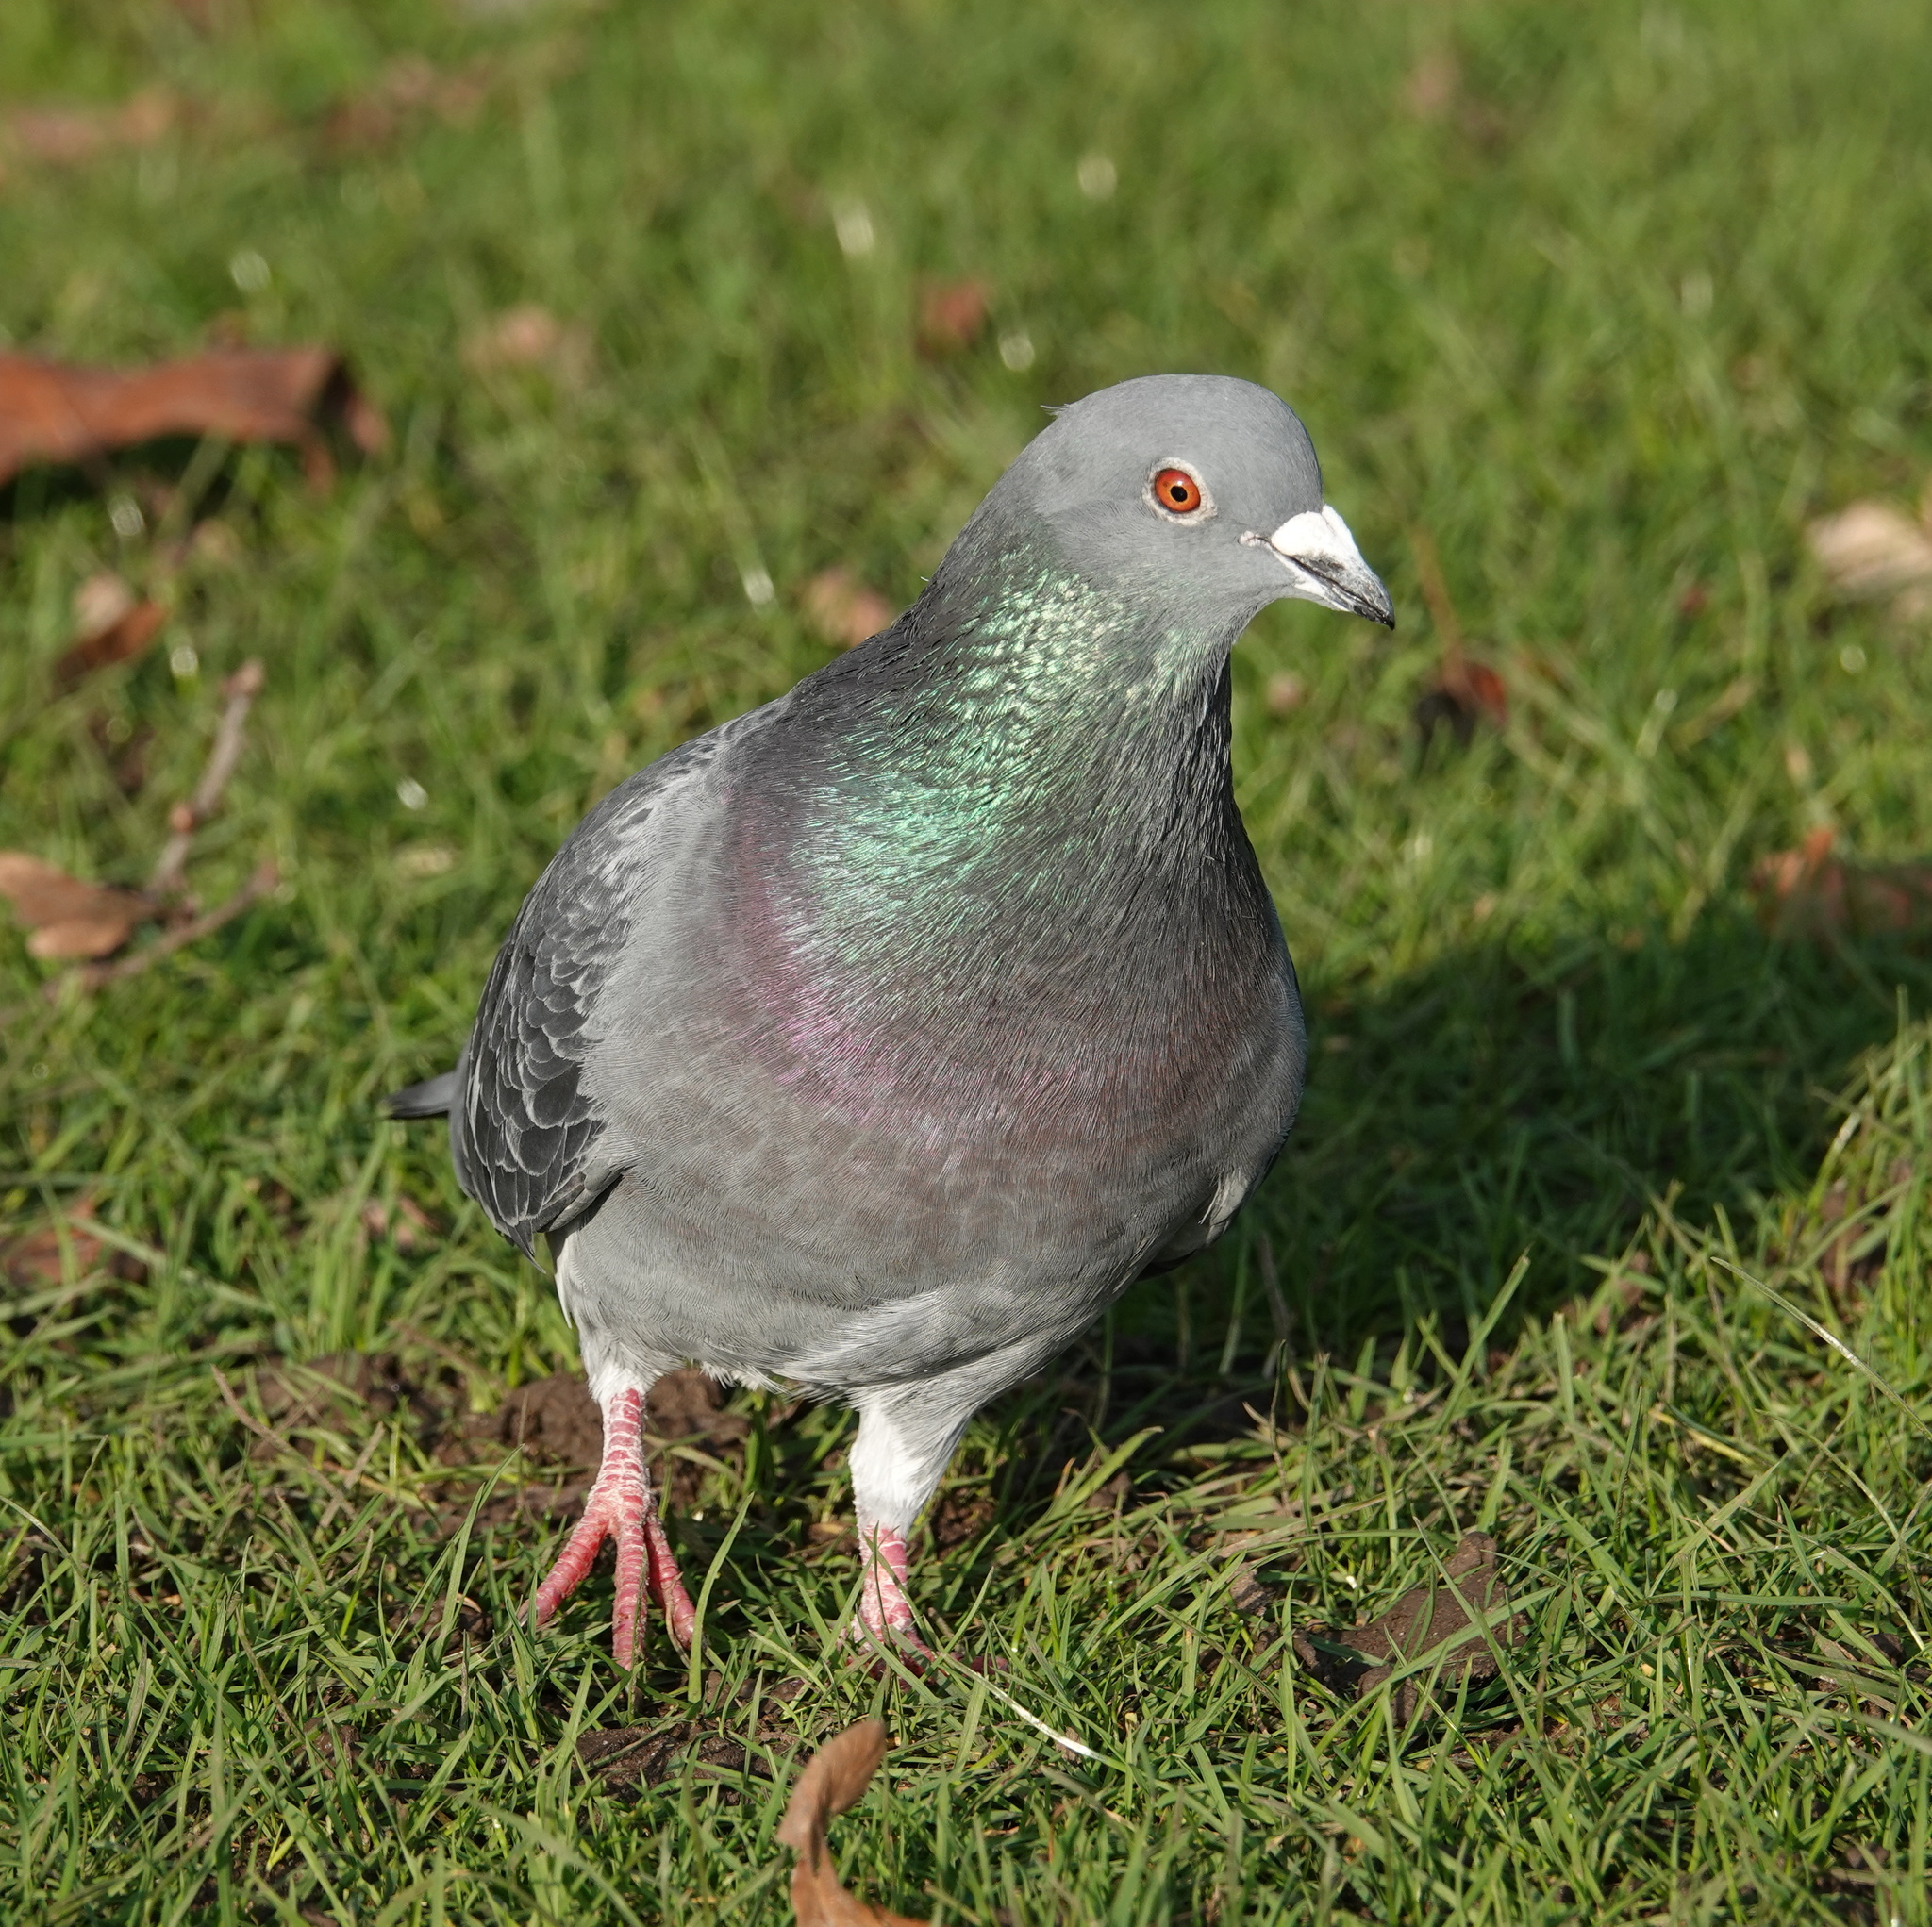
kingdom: Animalia
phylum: Chordata
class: Aves
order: Columbiformes
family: Columbidae
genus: Columba
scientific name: Columba livia
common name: Rock pigeon
